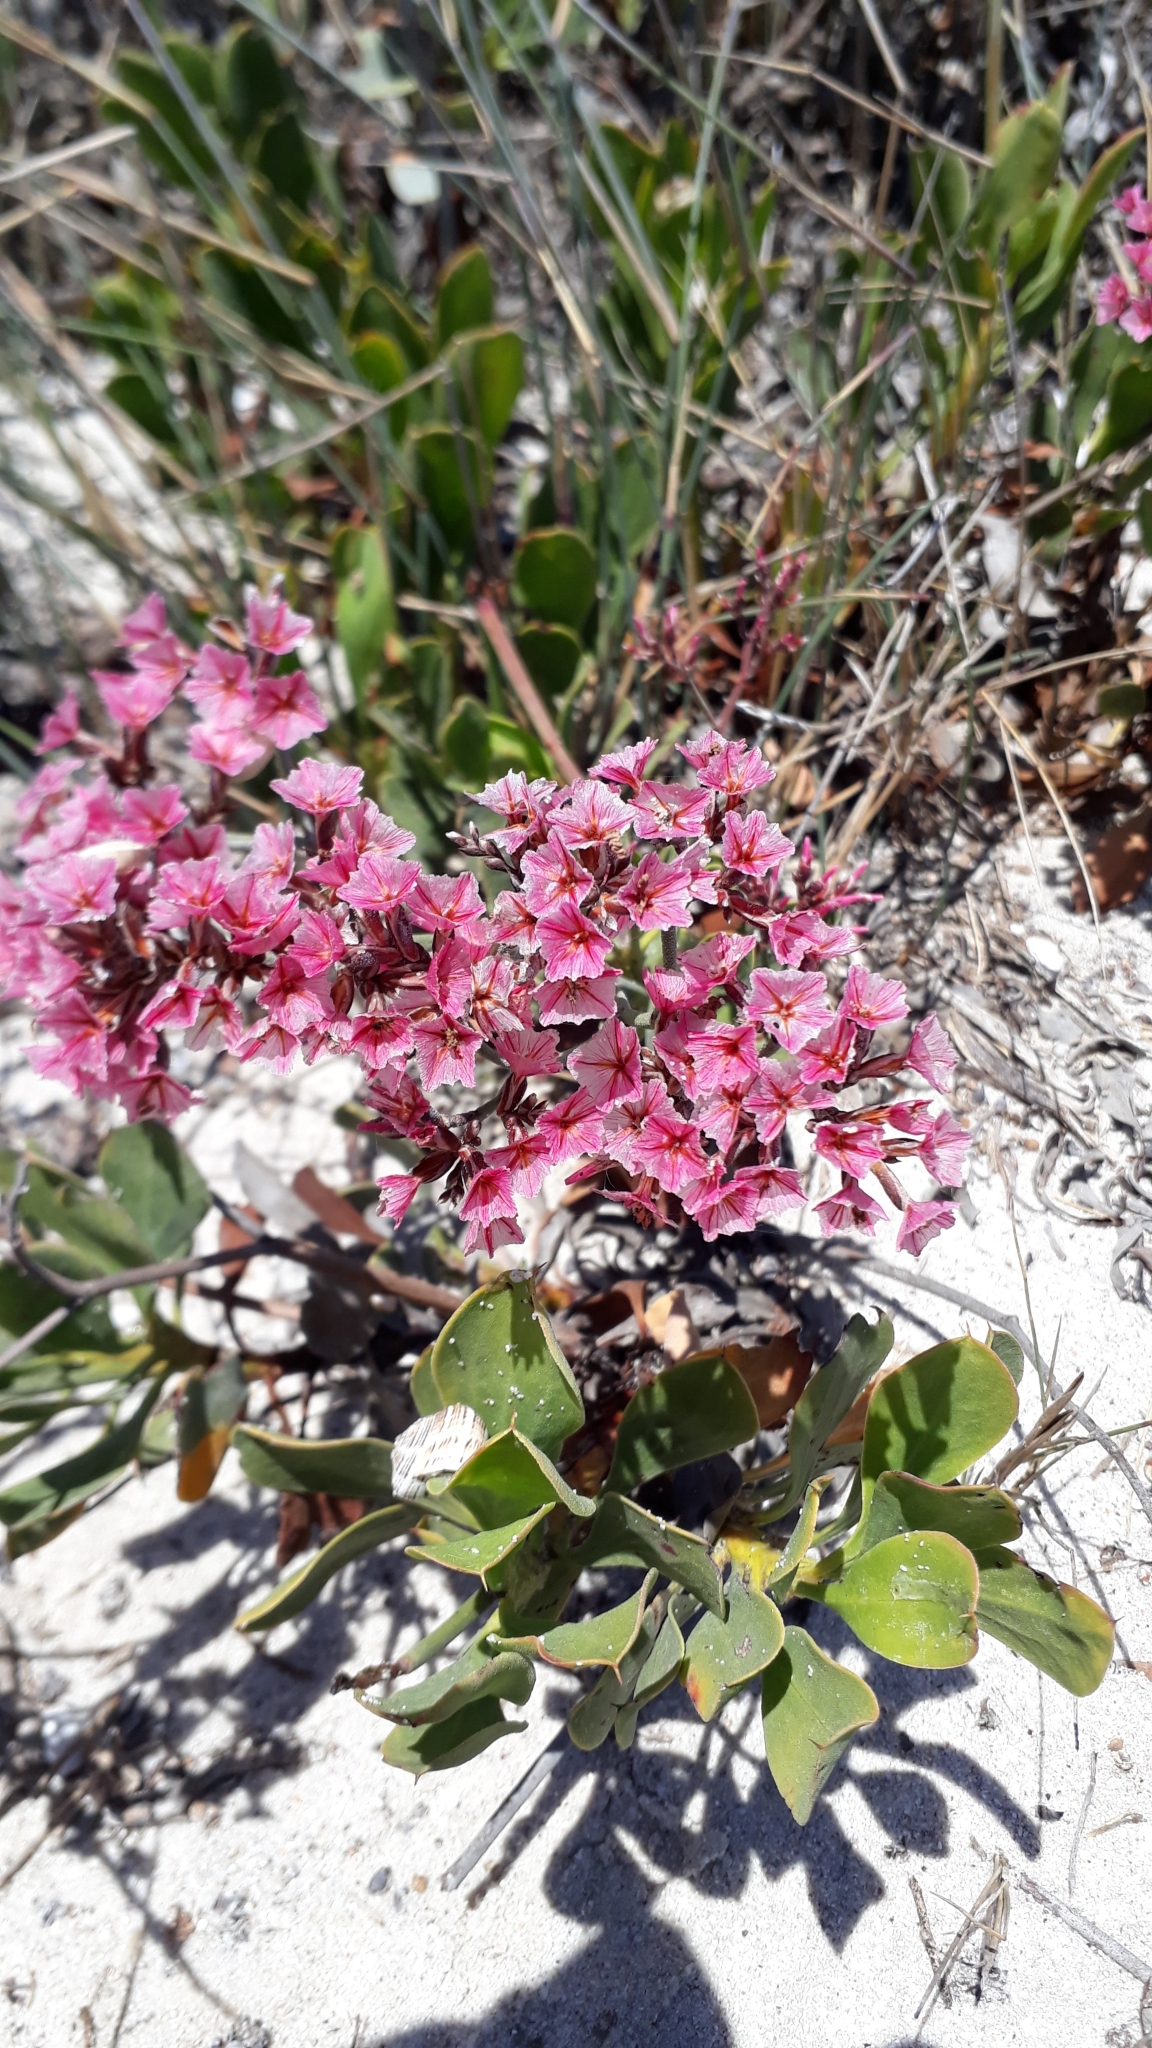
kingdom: Plantae
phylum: Tracheophyta
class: Magnoliopsida
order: Caryophyllales
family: Plumbaginaceae
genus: Limonium
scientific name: Limonium peregrinum
